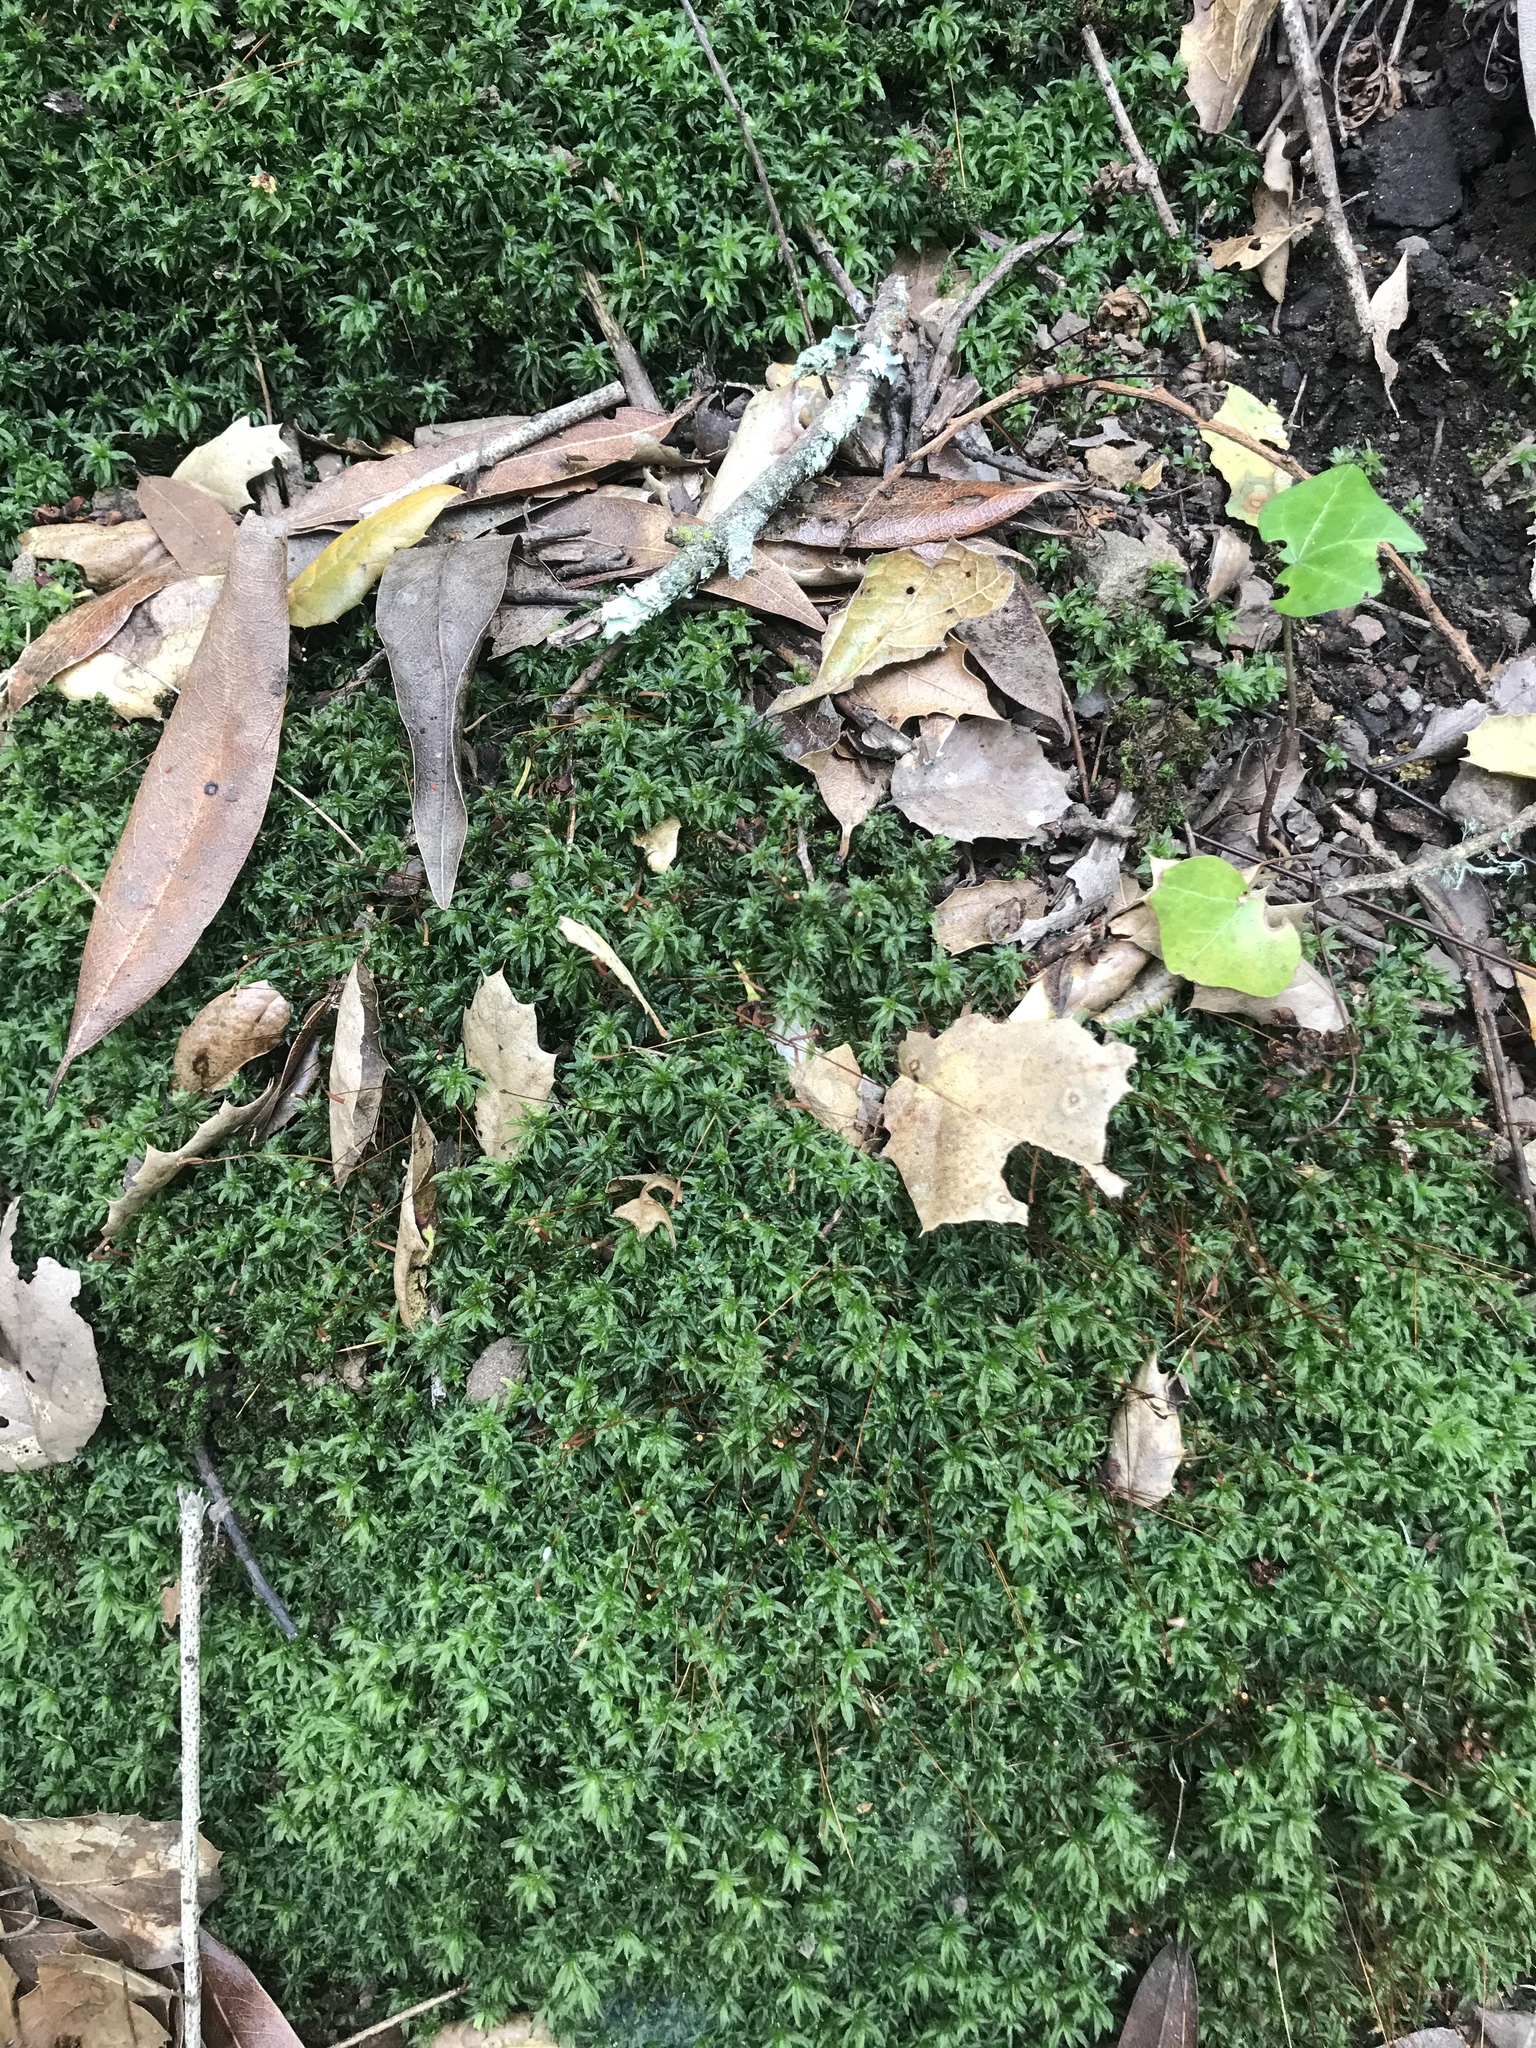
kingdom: Plantae
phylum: Bryophyta
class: Polytrichopsida
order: Polytrichales
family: Polytrichaceae
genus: Atrichum
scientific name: Atrichum selwynii
